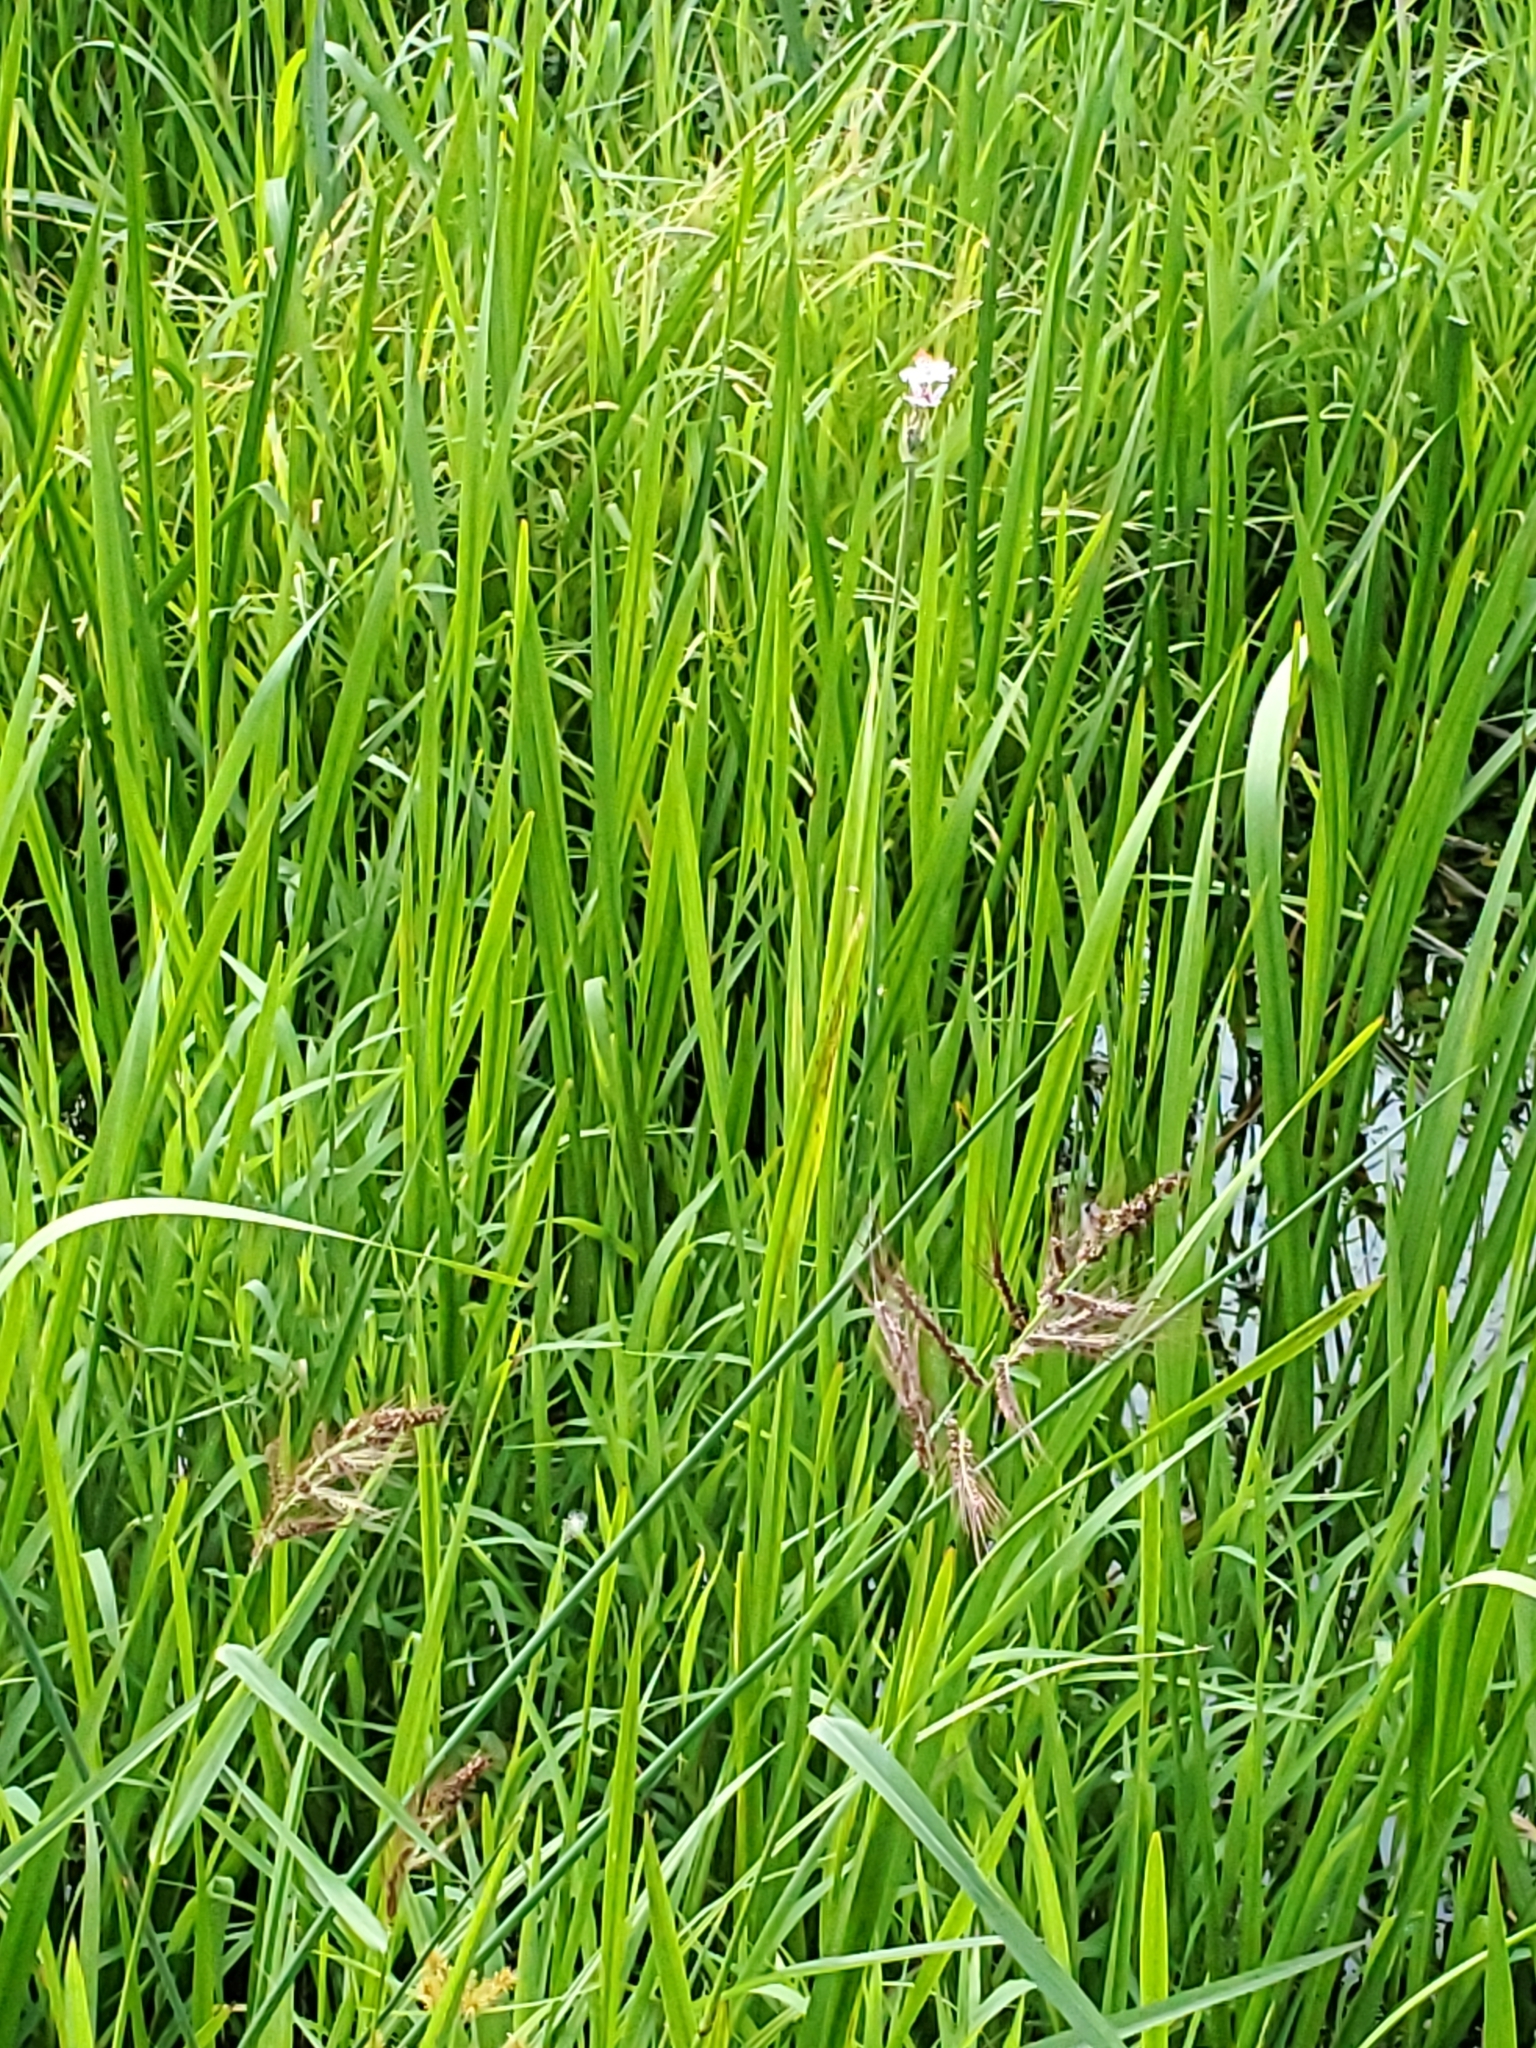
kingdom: Plantae
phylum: Tracheophyta
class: Liliopsida
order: Poales
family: Typhaceae
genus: Sparganium
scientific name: Sparganium eurycarpum
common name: Broad-fruited burreed
